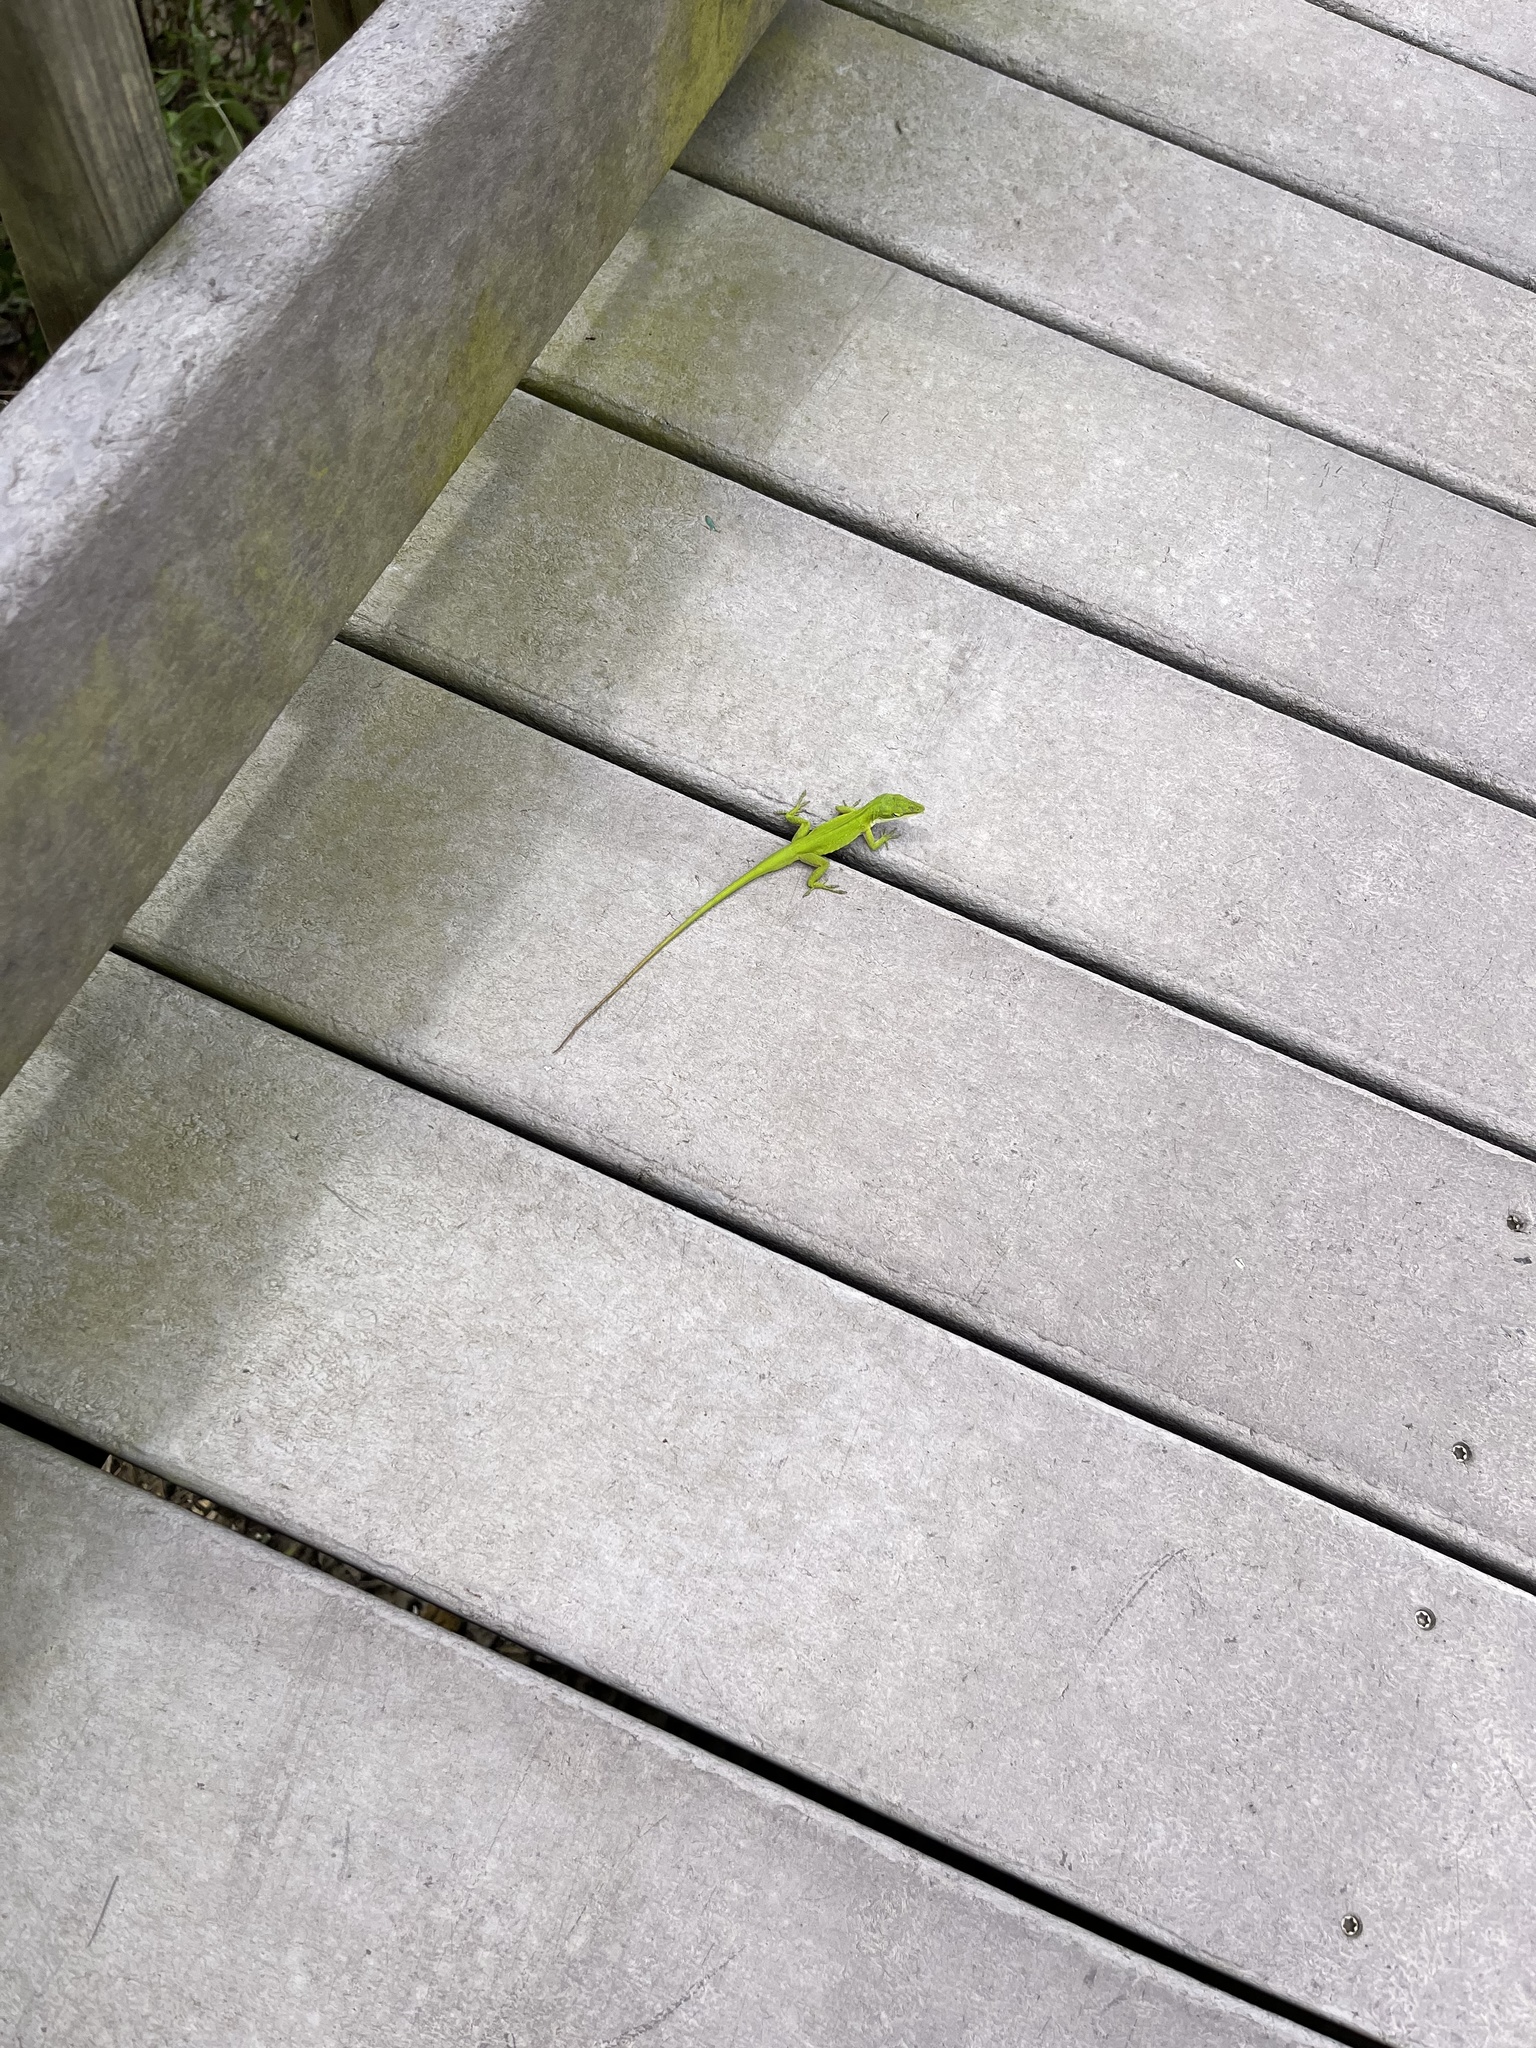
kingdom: Animalia
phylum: Chordata
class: Squamata
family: Dactyloidae
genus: Anolis
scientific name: Anolis carolinensis
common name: Green anole
